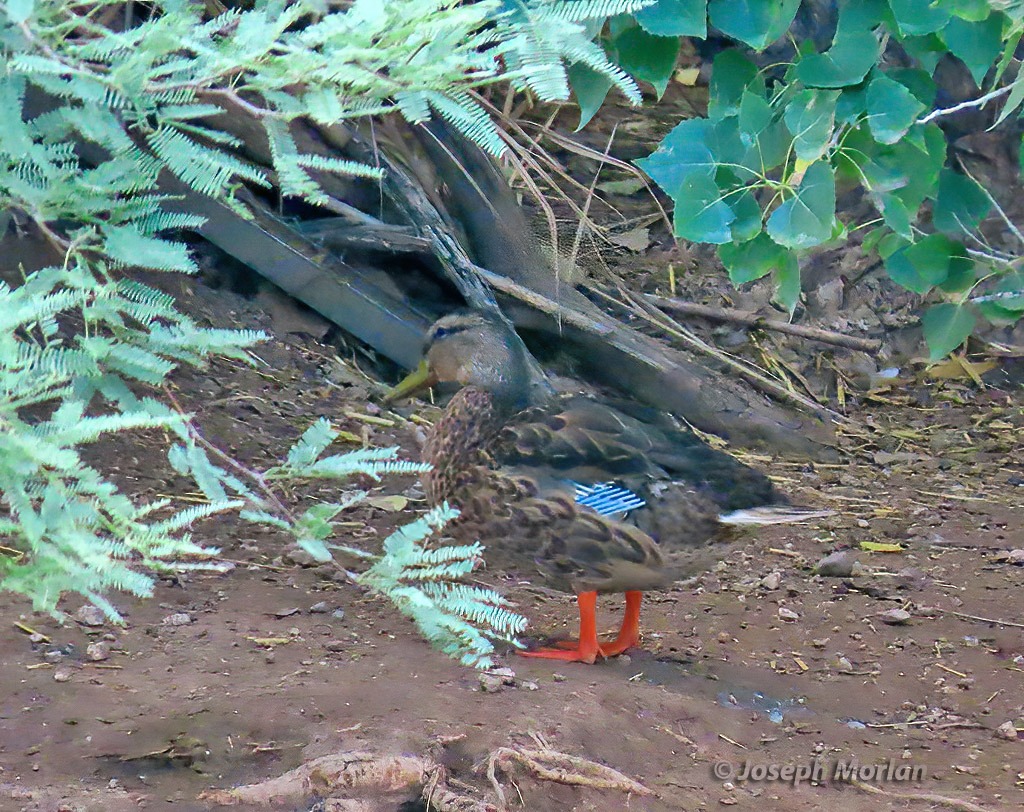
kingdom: Animalia
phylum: Chordata
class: Aves
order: Anseriformes
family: Anatidae
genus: Anas
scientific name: Anas
